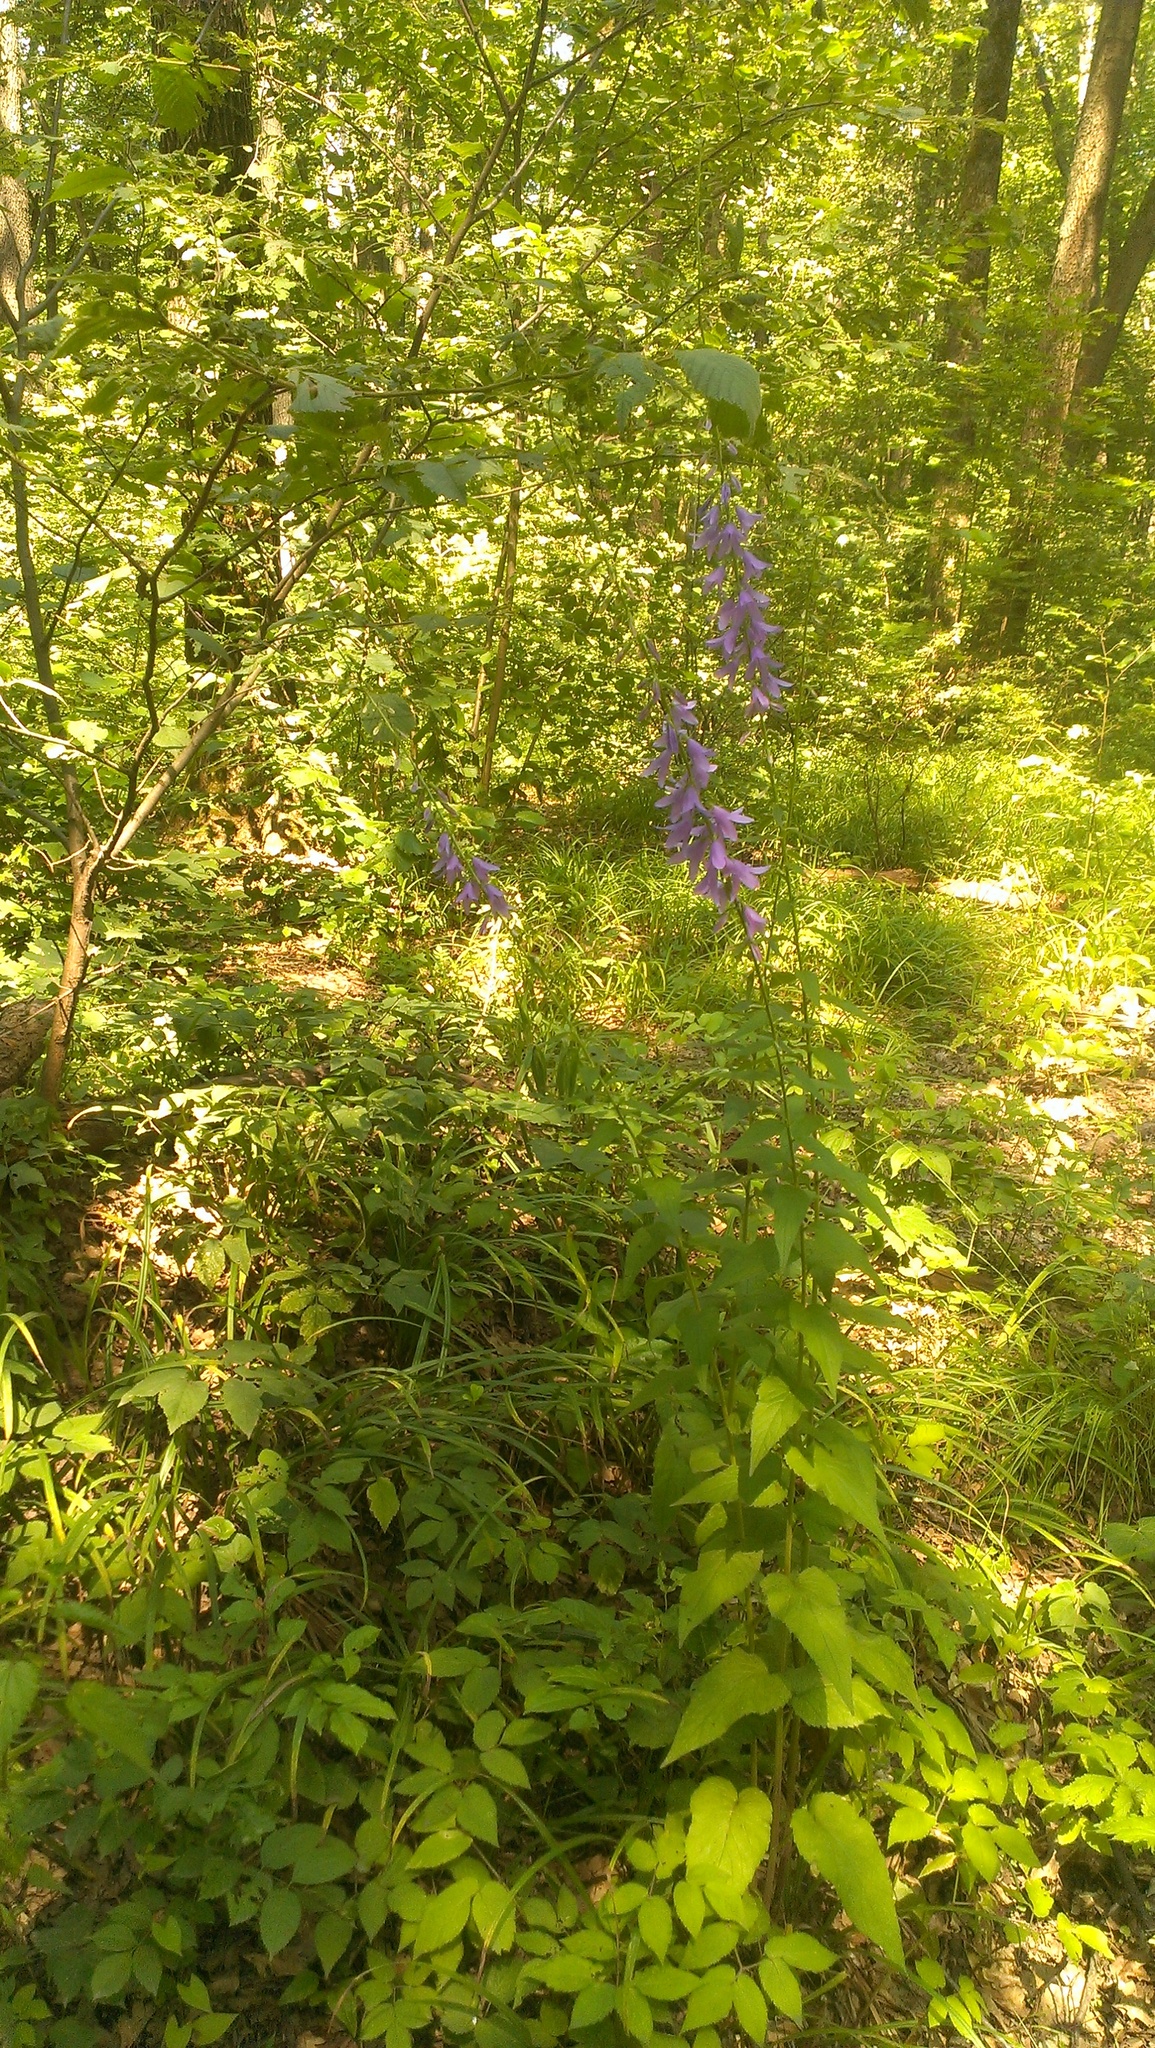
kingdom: Plantae
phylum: Tracheophyta
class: Magnoliopsida
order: Asterales
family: Campanulaceae
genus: Campanula
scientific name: Campanula rapunculoides
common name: Creeping bellflower
